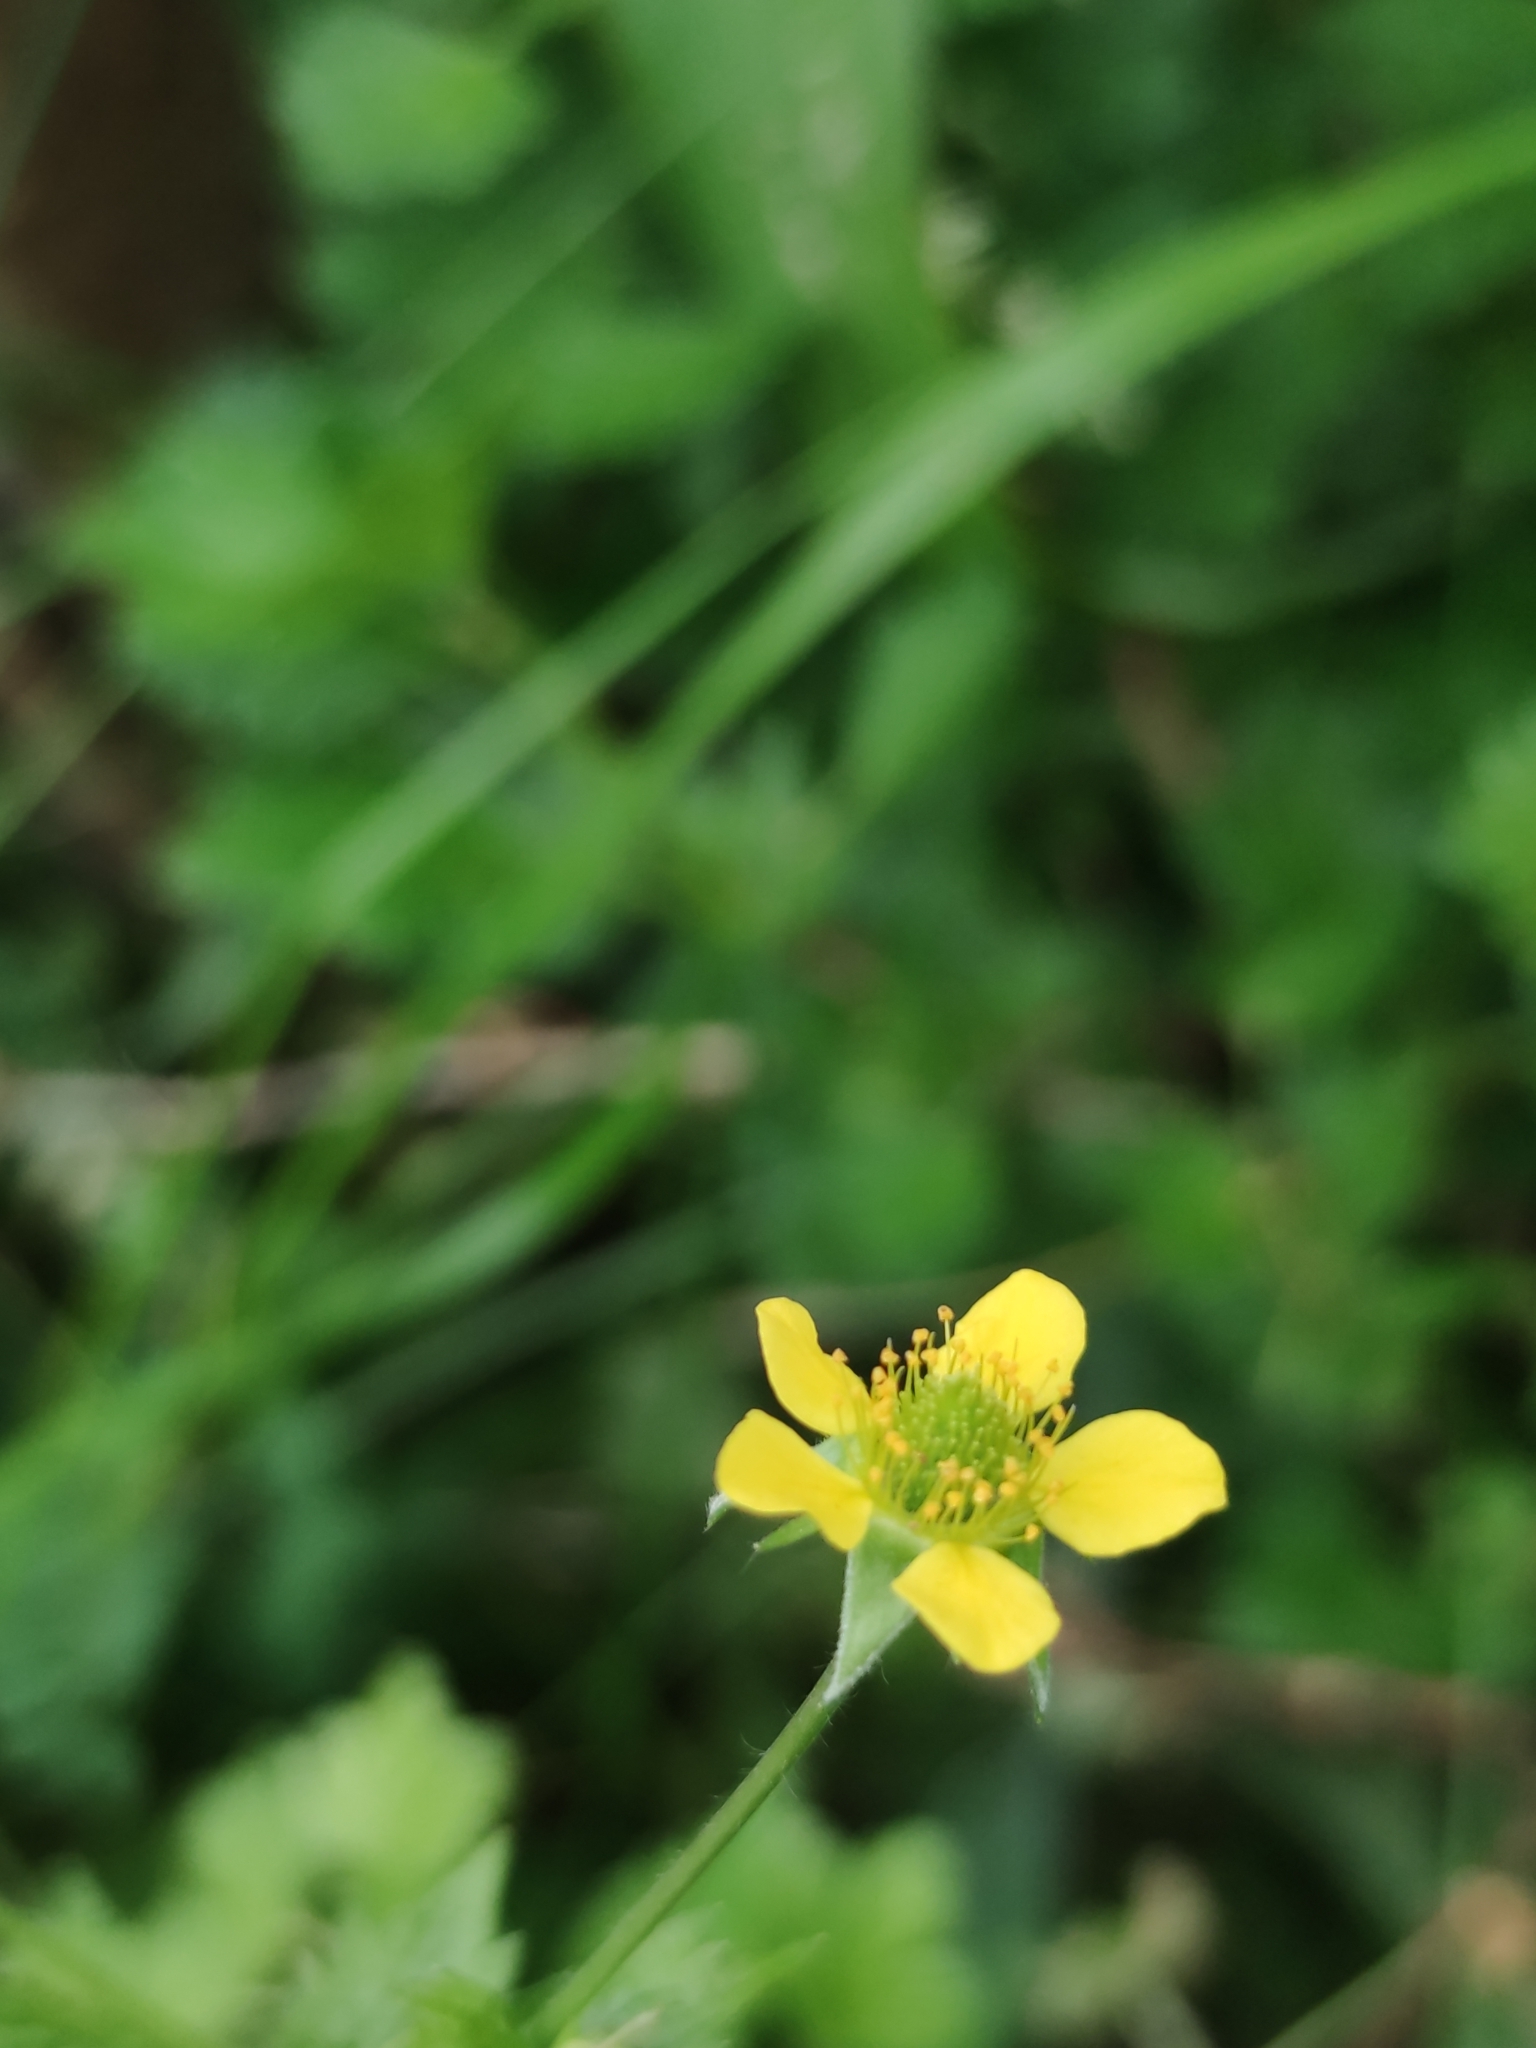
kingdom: Plantae
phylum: Tracheophyta
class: Magnoliopsida
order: Rosales
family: Rosaceae
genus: Geum
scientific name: Geum urbanum
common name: Wood avens
